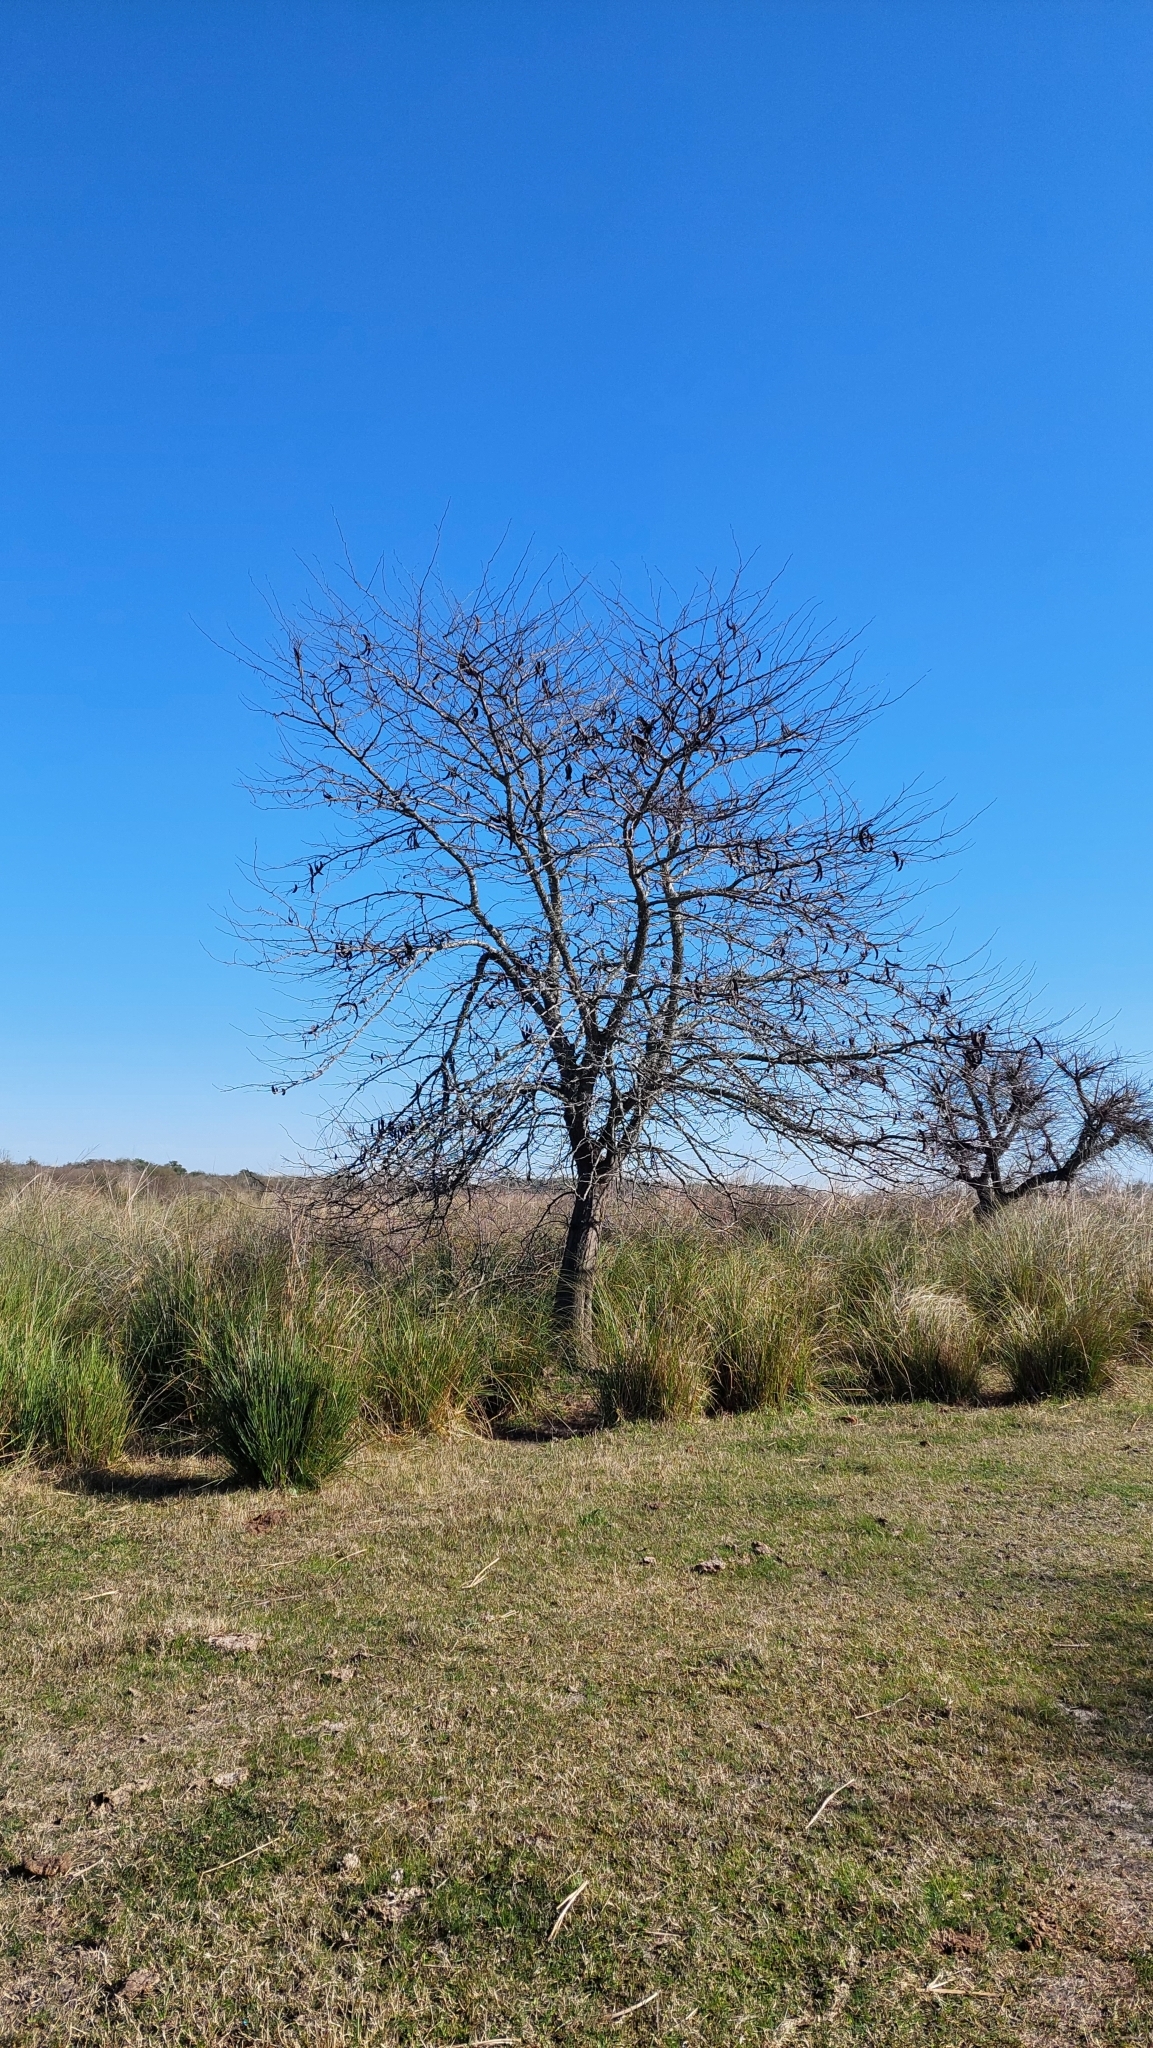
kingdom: Plantae
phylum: Tracheophyta
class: Magnoliopsida
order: Fabales
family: Fabaceae
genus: Gleditsia
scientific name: Gleditsia triacanthos
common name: Common honeylocust
